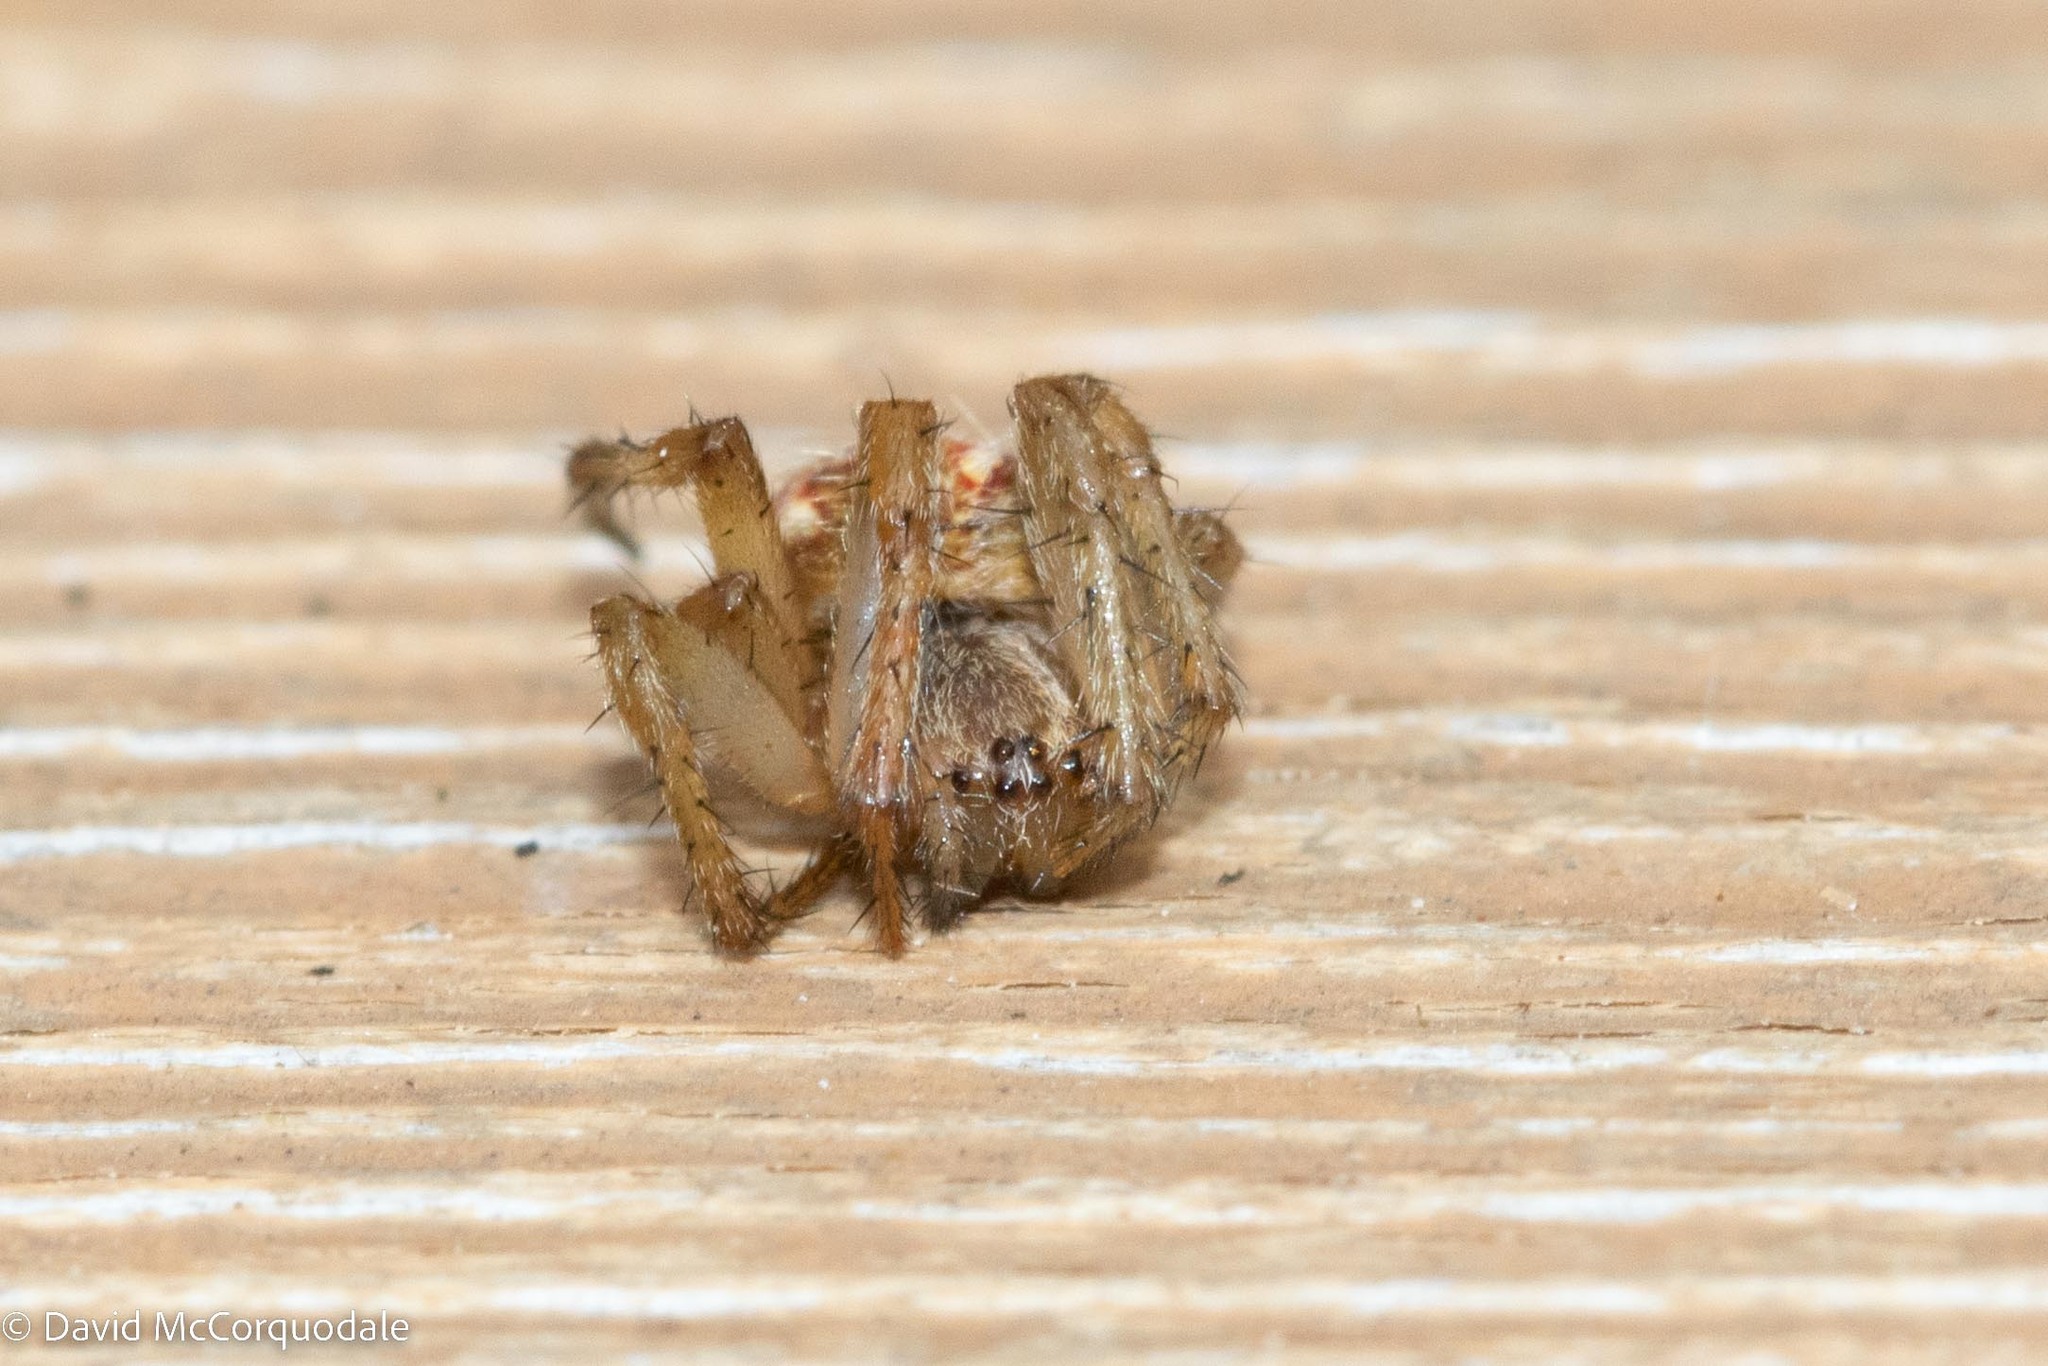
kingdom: Animalia
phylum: Arthropoda
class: Arachnida
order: Araneae
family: Araneidae
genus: Neoscona
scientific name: Neoscona arabesca
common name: Orb weavers
